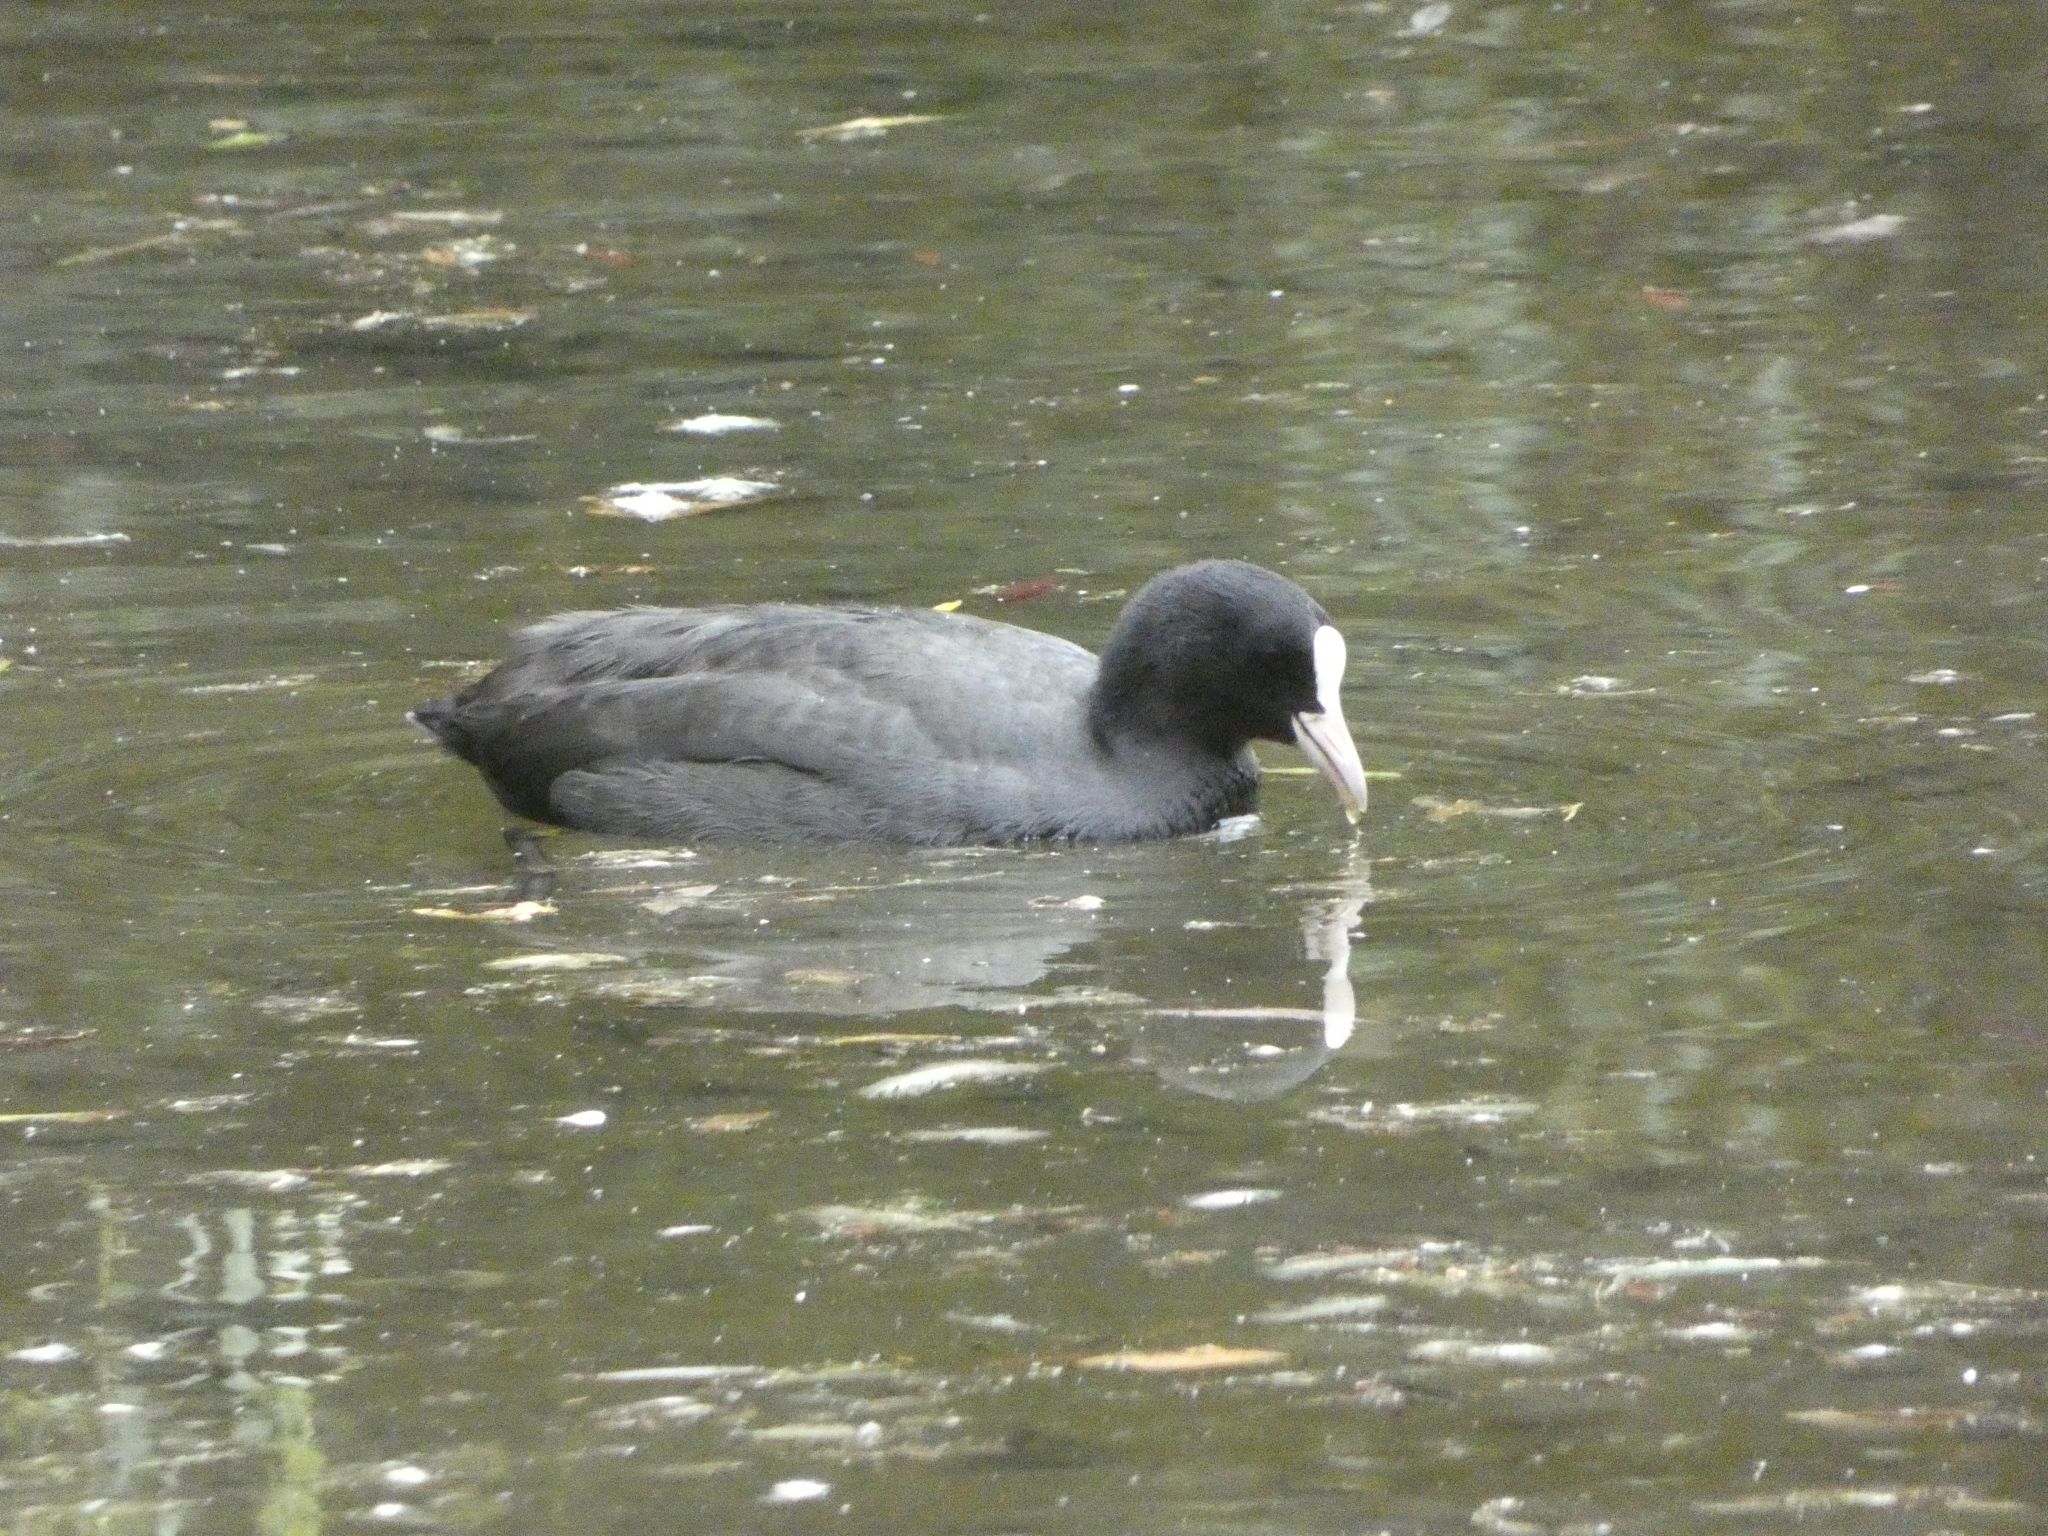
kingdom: Animalia
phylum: Chordata
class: Aves
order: Gruiformes
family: Rallidae
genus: Fulica
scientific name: Fulica atra
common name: Eurasian coot
